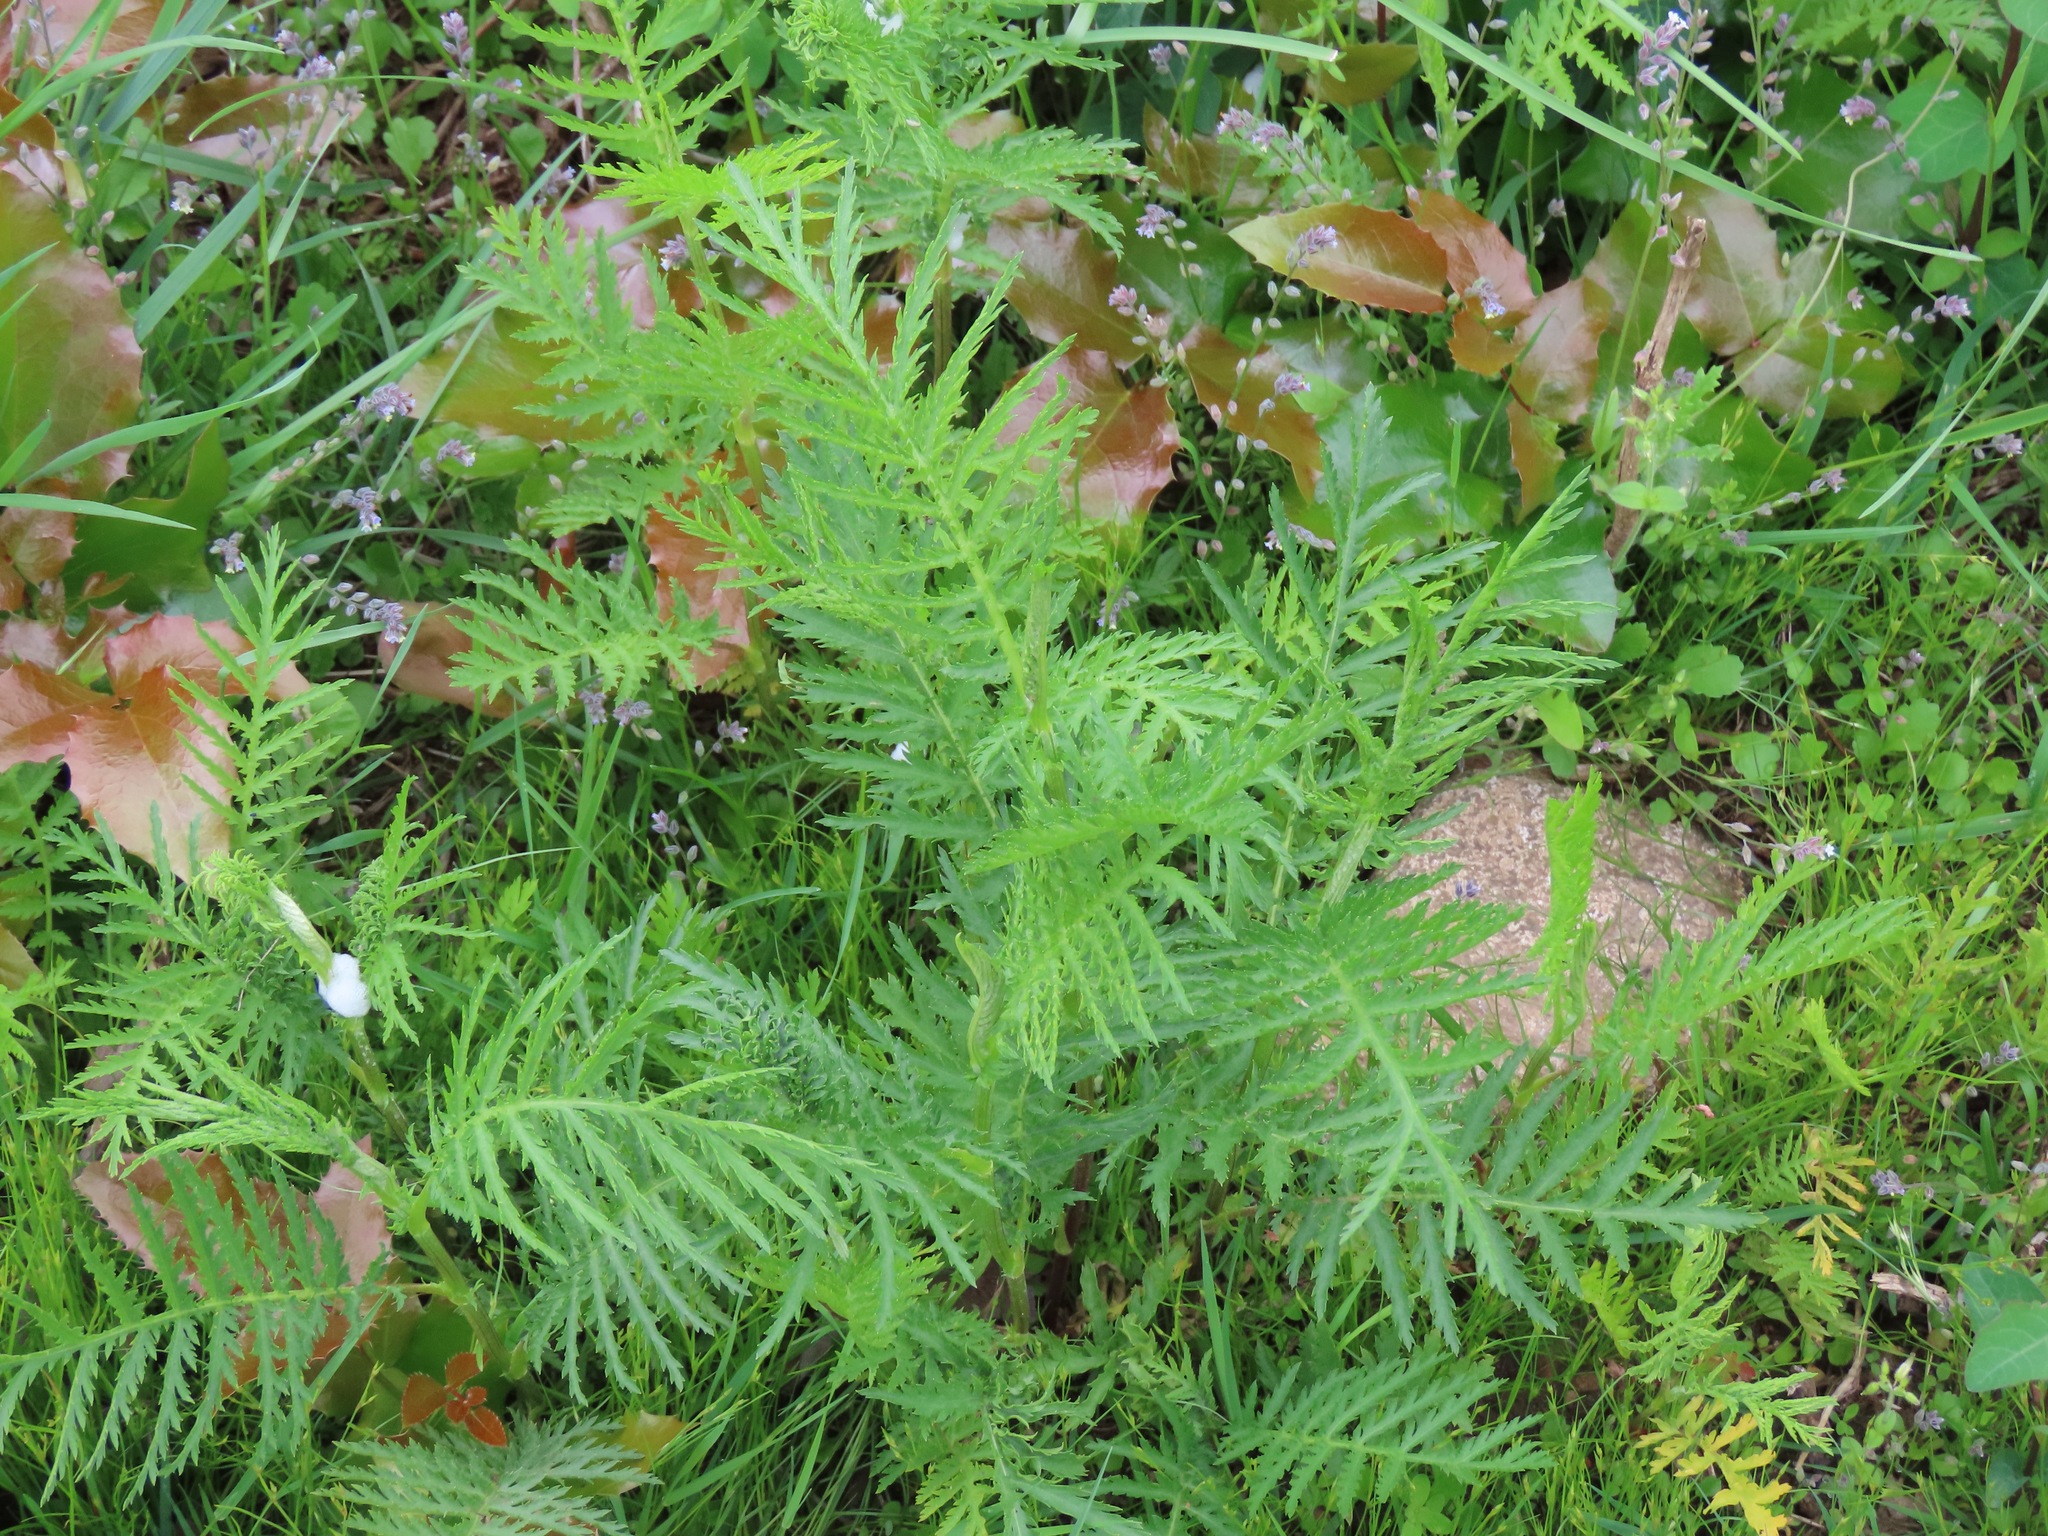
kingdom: Plantae
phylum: Tracheophyta
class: Magnoliopsida
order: Asterales
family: Asteraceae
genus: Tanacetum
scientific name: Tanacetum vulgare
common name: Common tansy
